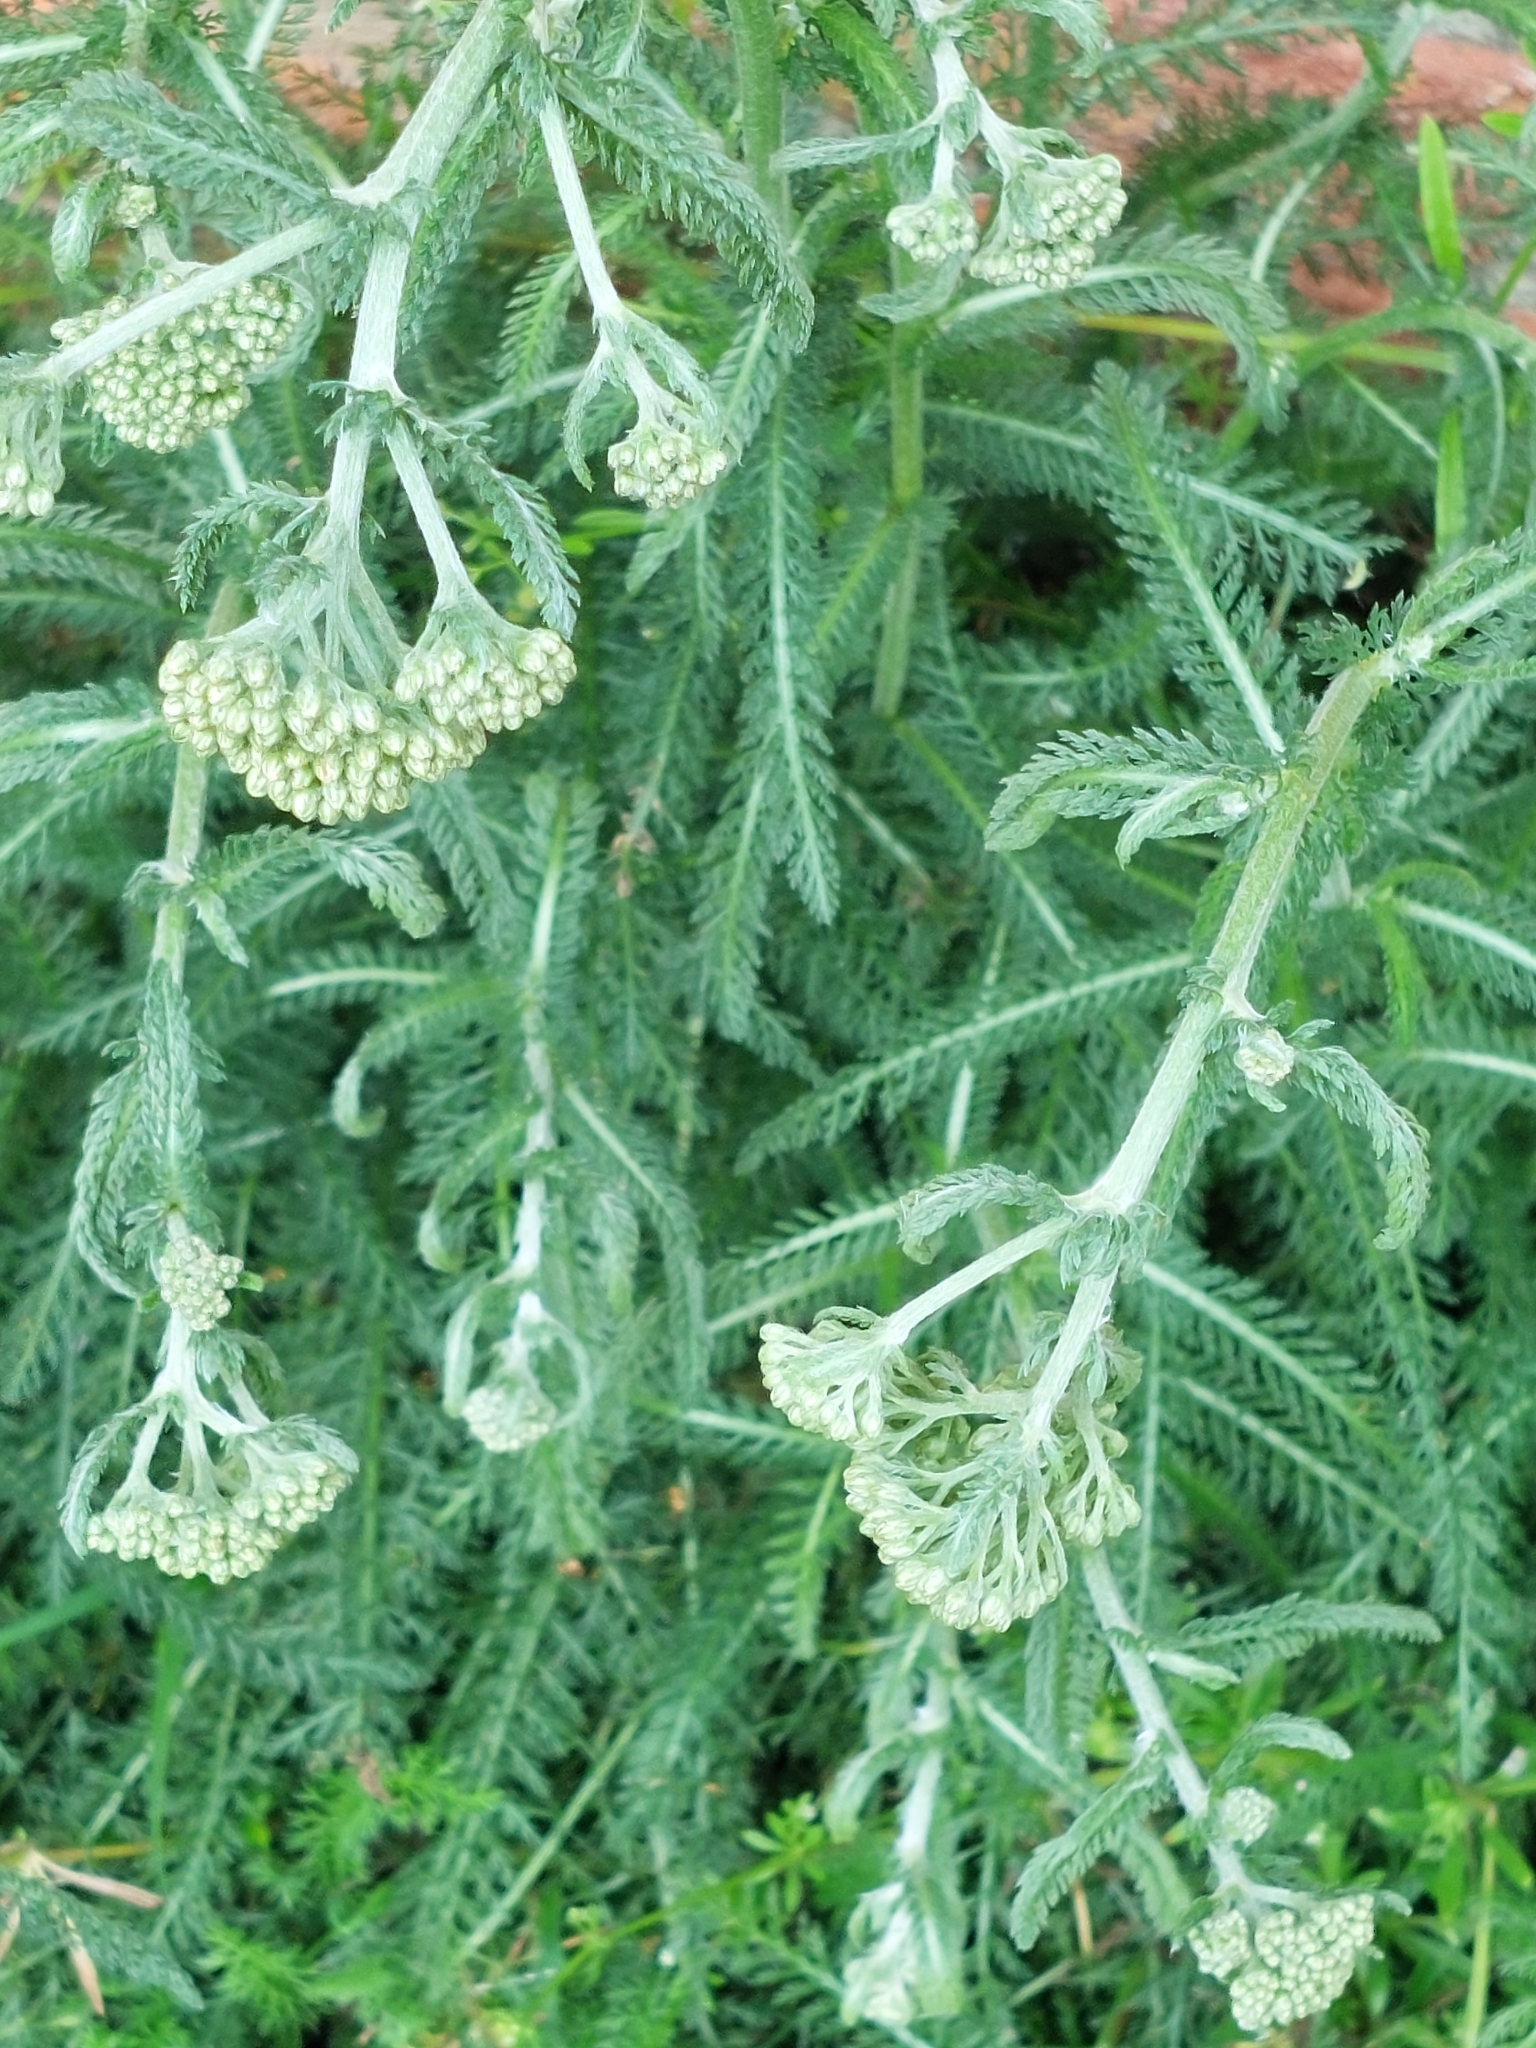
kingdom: Plantae
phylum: Tracheophyta
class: Magnoliopsida
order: Asterales
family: Asteraceae
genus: Achillea
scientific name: Achillea millefolium
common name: Yarrow
